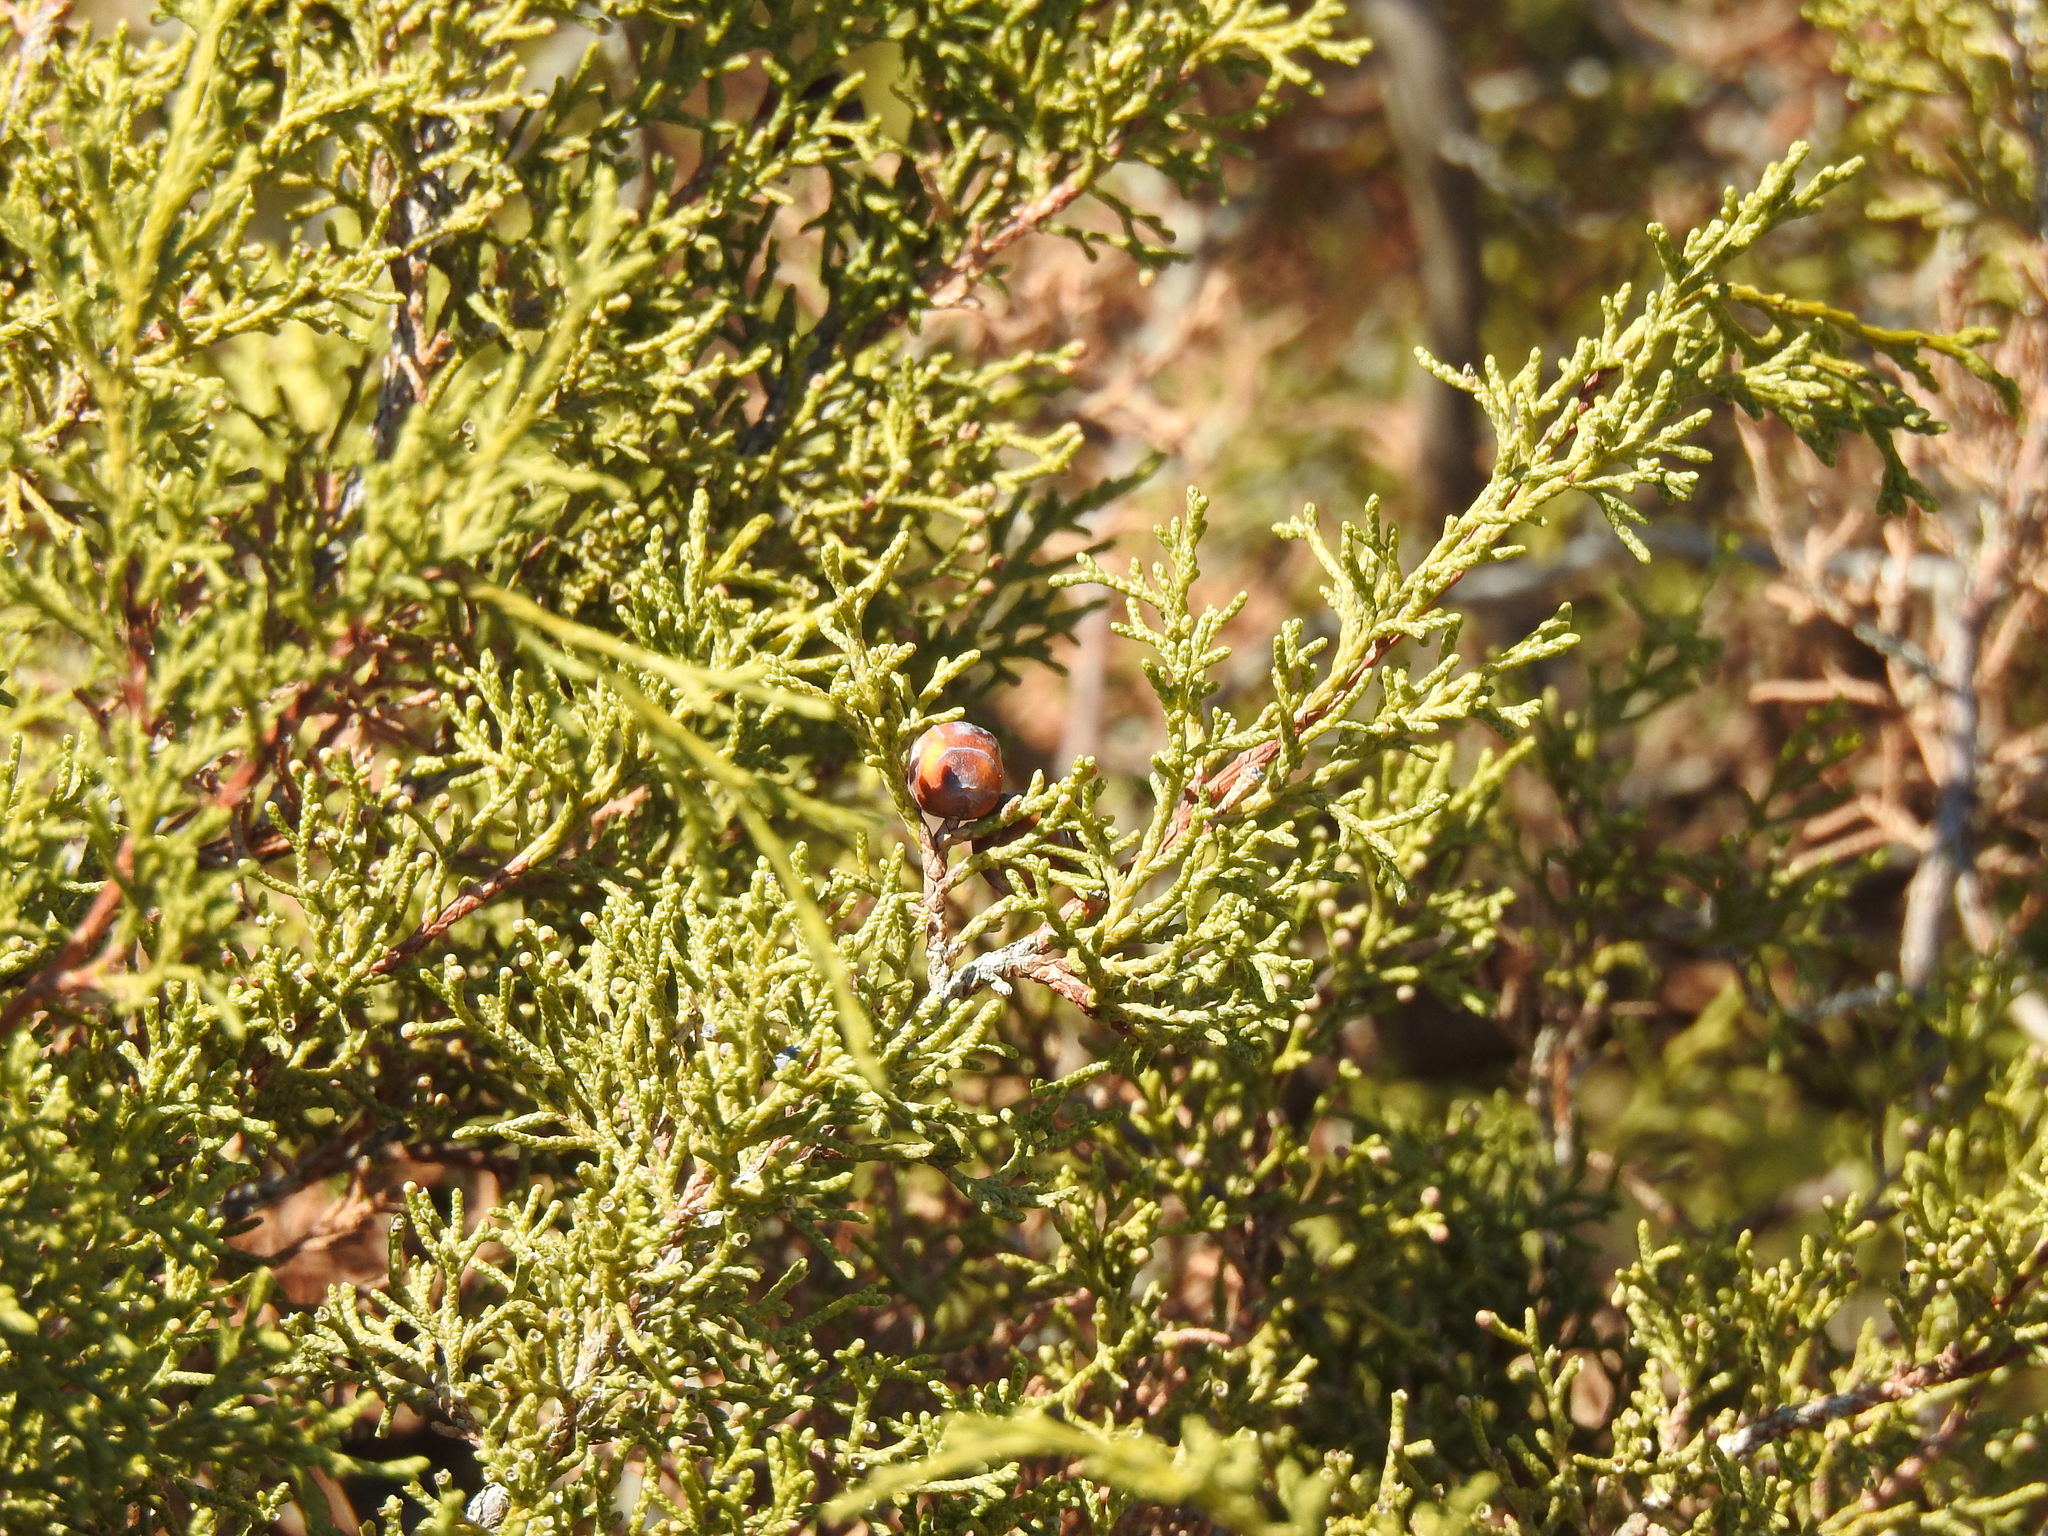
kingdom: Plantae
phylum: Tracheophyta
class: Pinopsida
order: Pinales
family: Cupressaceae
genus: Juniperus
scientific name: Juniperus phoenicea
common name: Phoenician juniper
